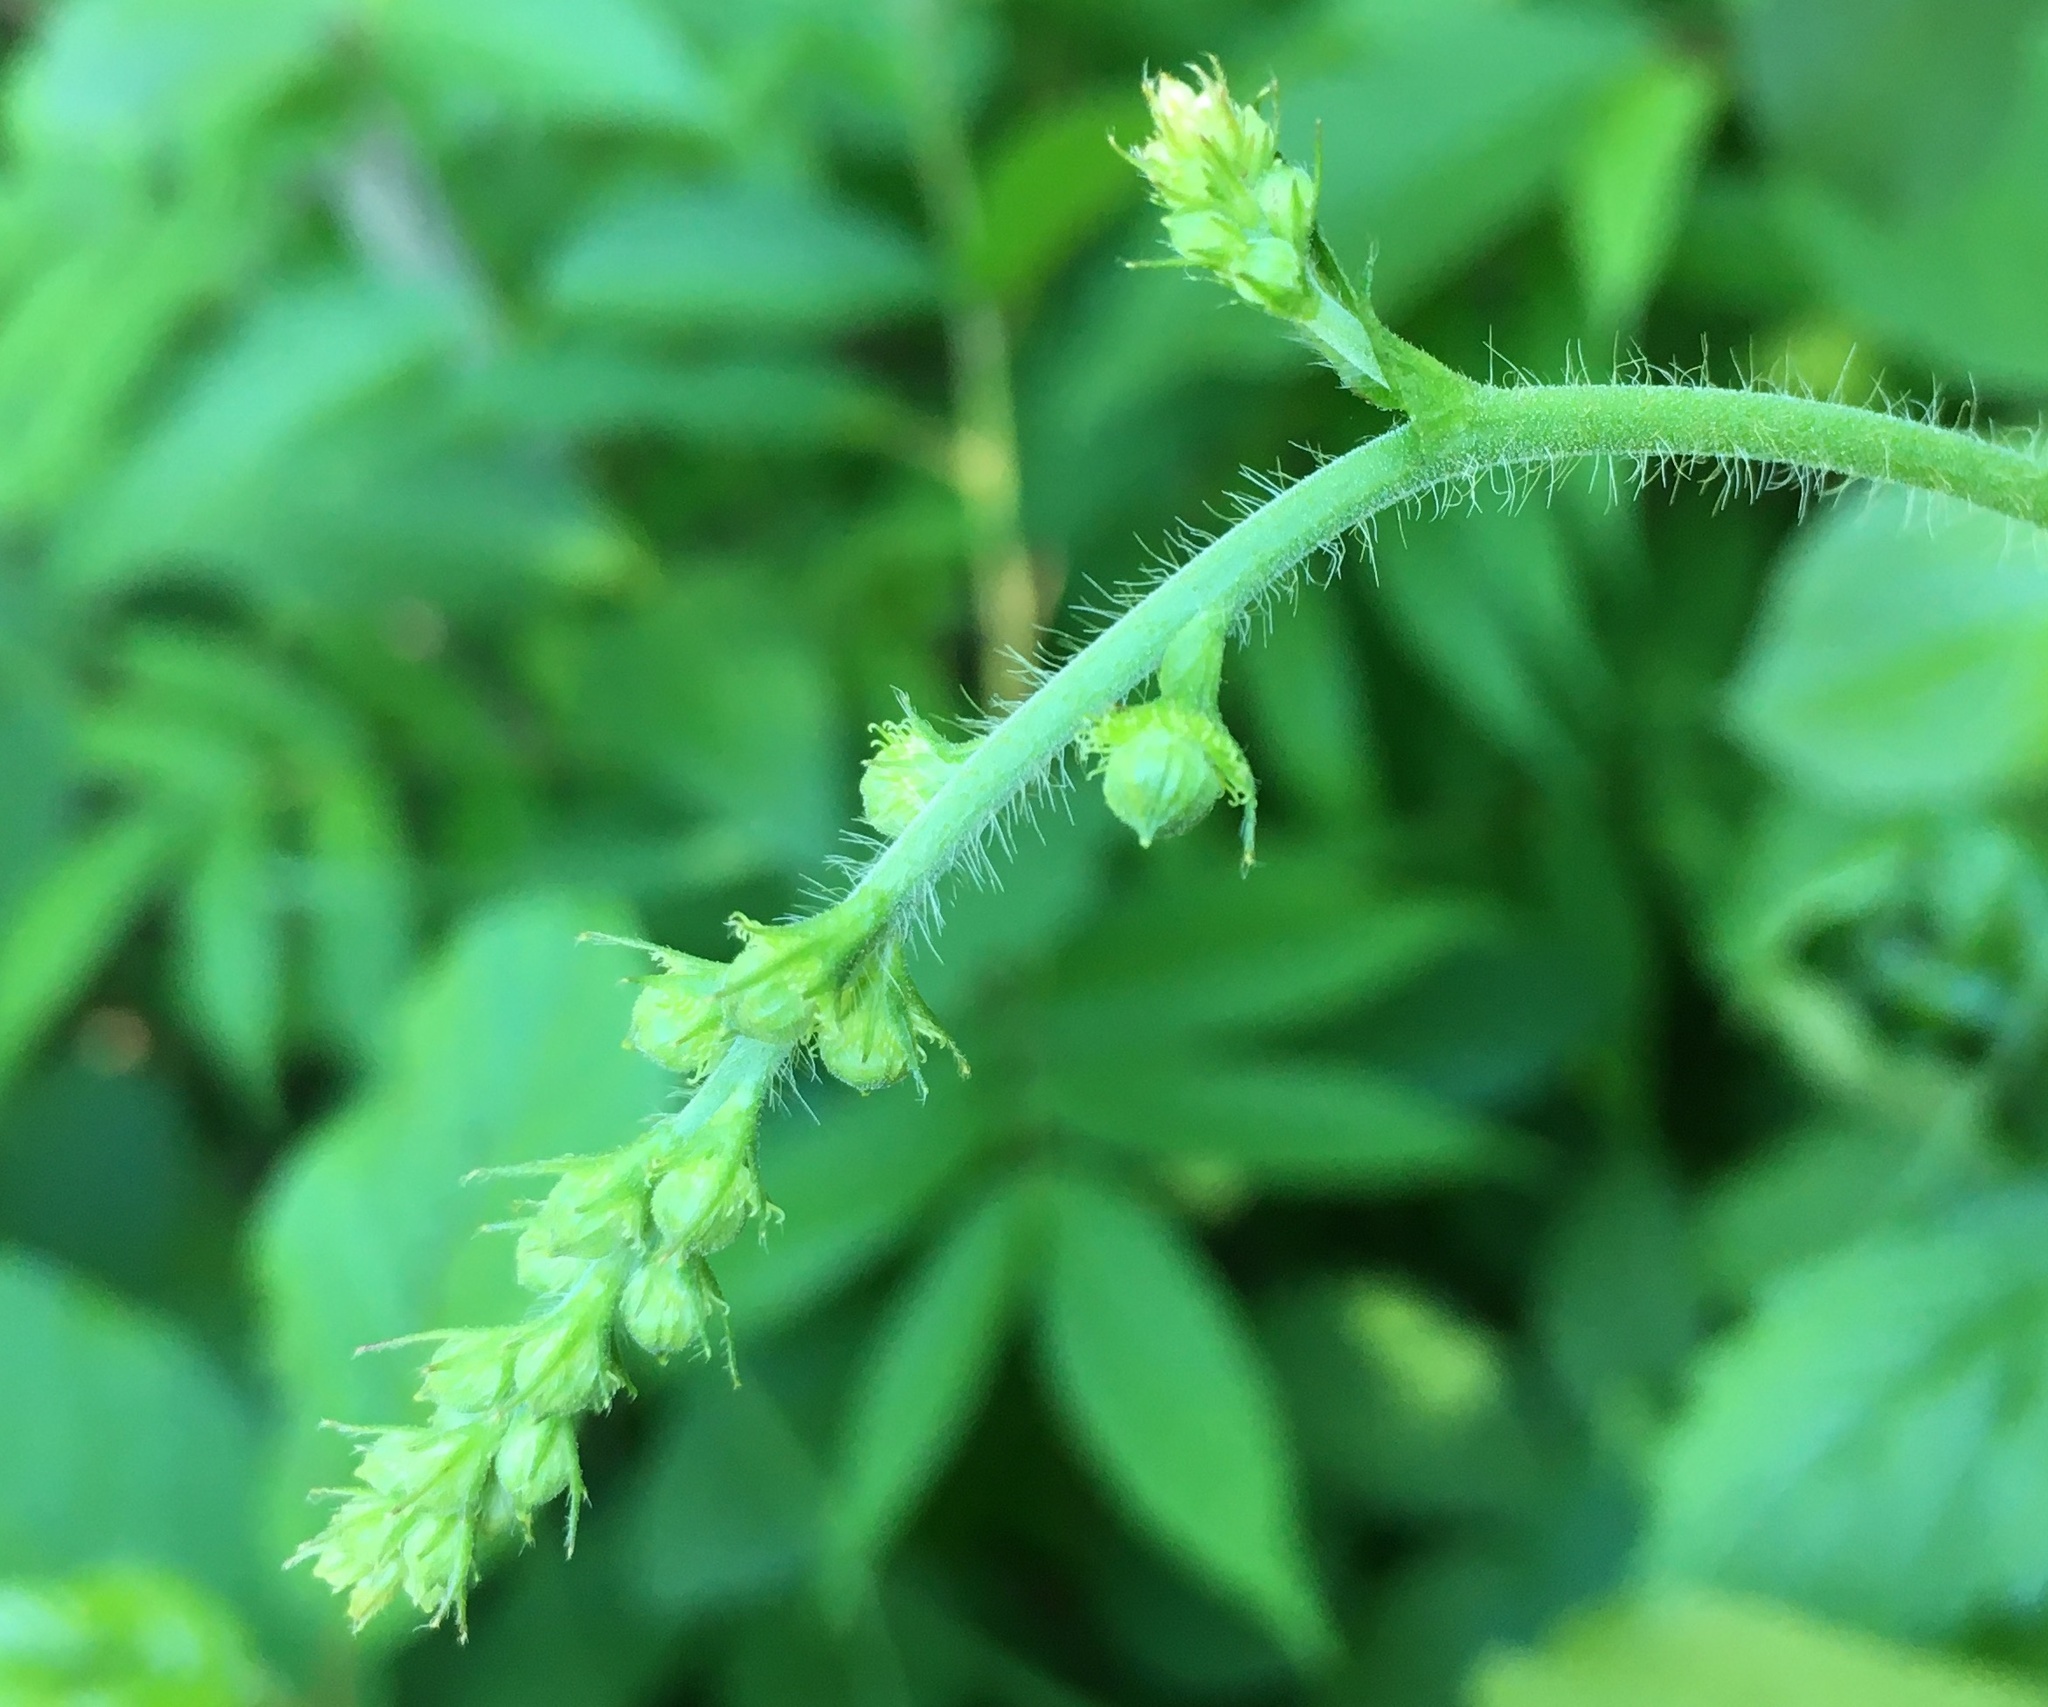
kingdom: Plantae
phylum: Tracheophyta
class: Magnoliopsida
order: Rosales
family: Rosaceae
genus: Agrimonia
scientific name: Agrimonia gryposepala
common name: Common agrimony
